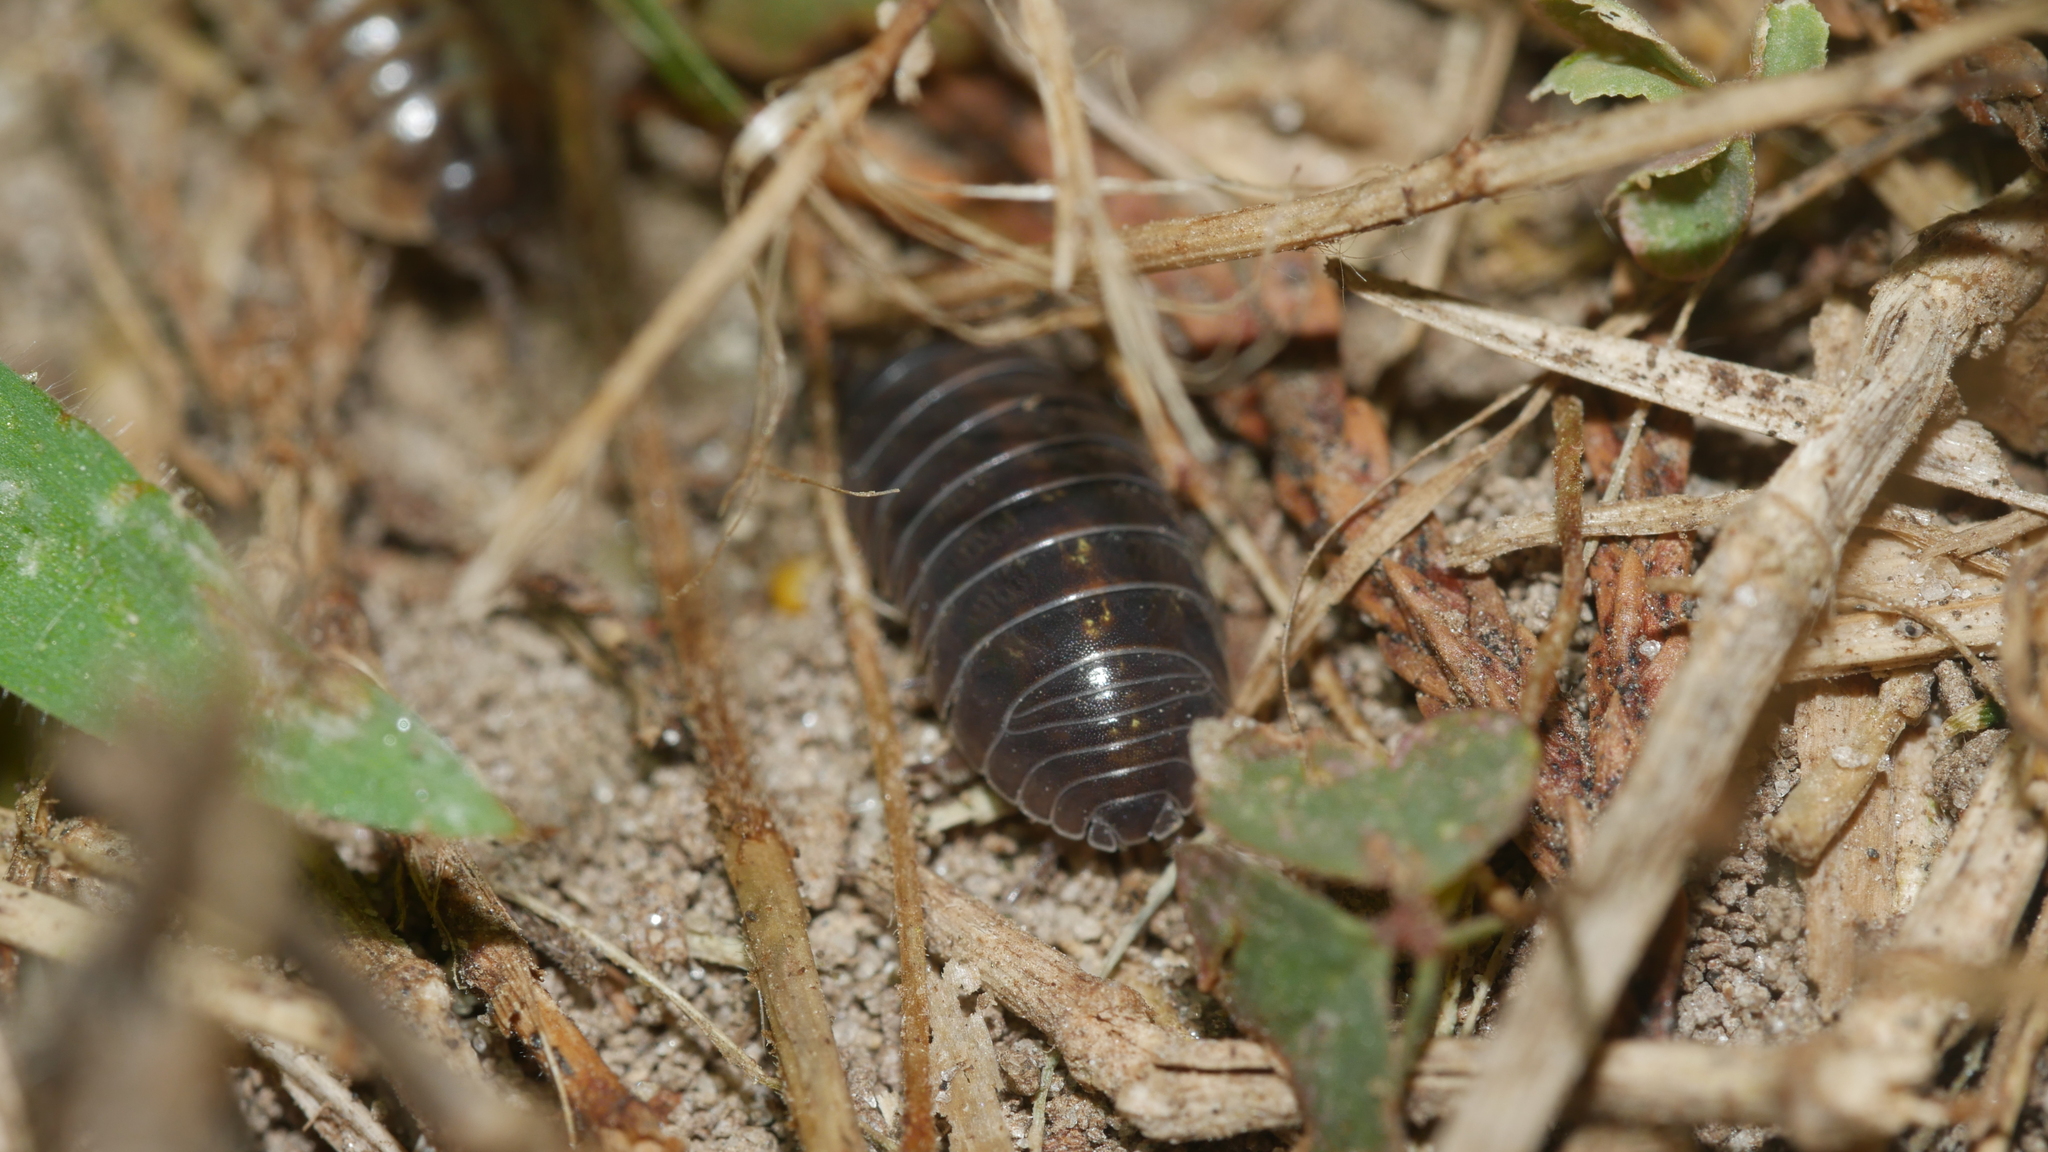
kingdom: Animalia
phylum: Arthropoda
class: Malacostraca
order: Isopoda
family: Armadillidiidae
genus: Armadillidium
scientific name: Armadillidium vulgare
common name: Common pill woodlouse
